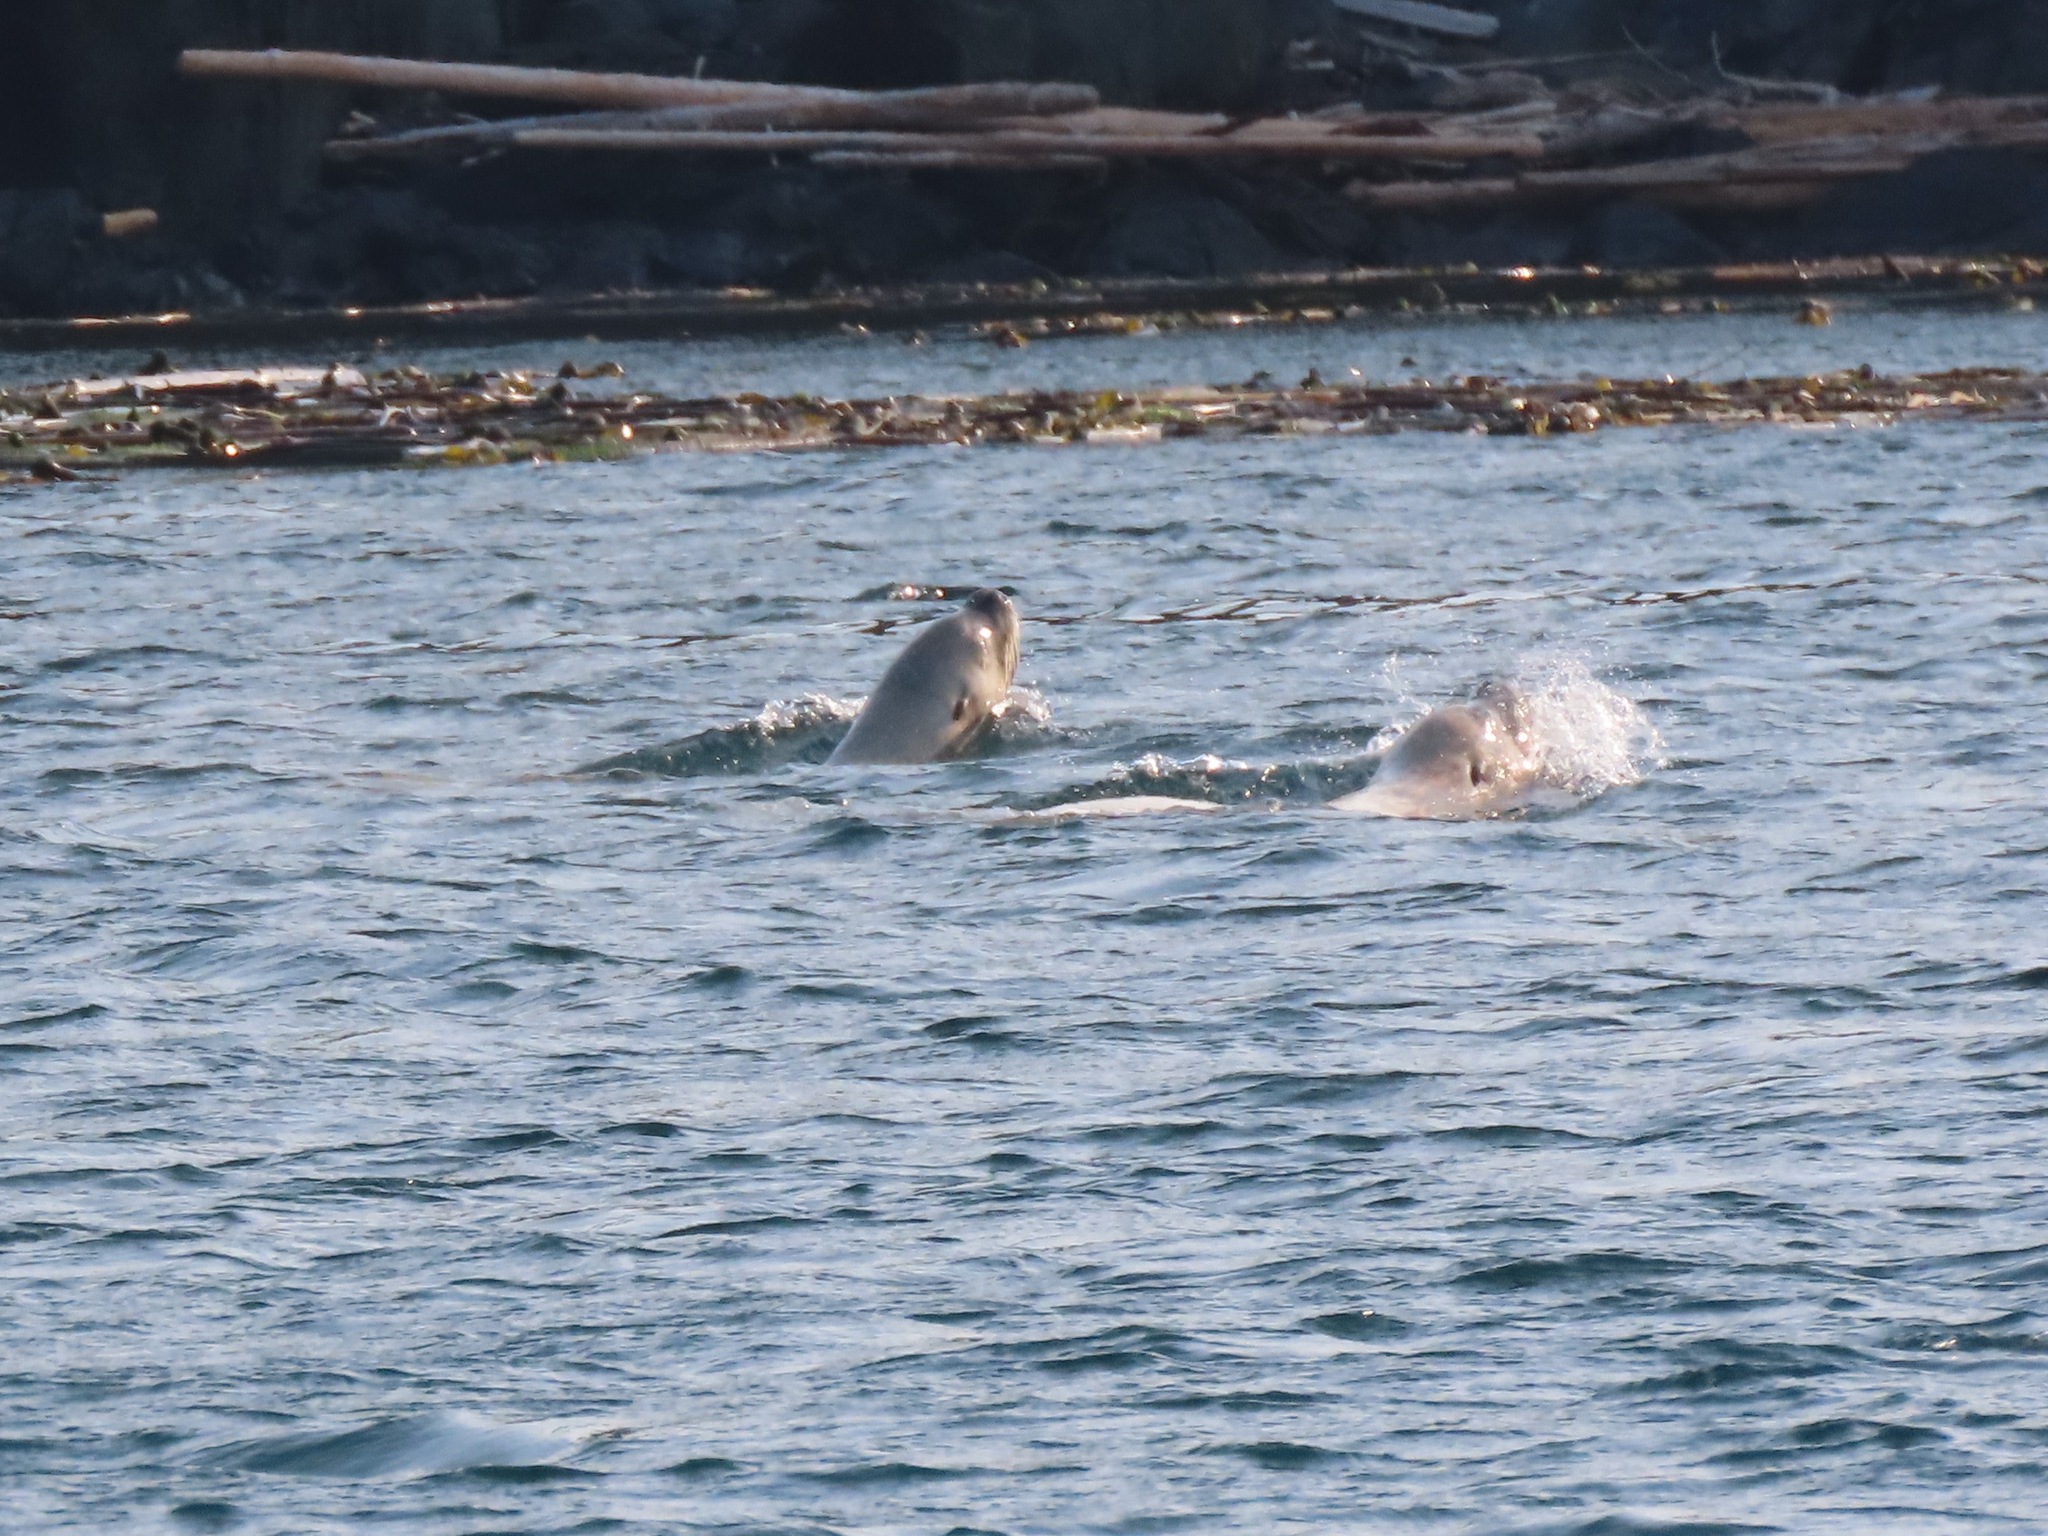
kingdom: Animalia
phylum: Chordata
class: Mammalia
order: Carnivora
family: Otariidae
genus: Eumetopias
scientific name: Eumetopias jubatus
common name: Steller sea lion
